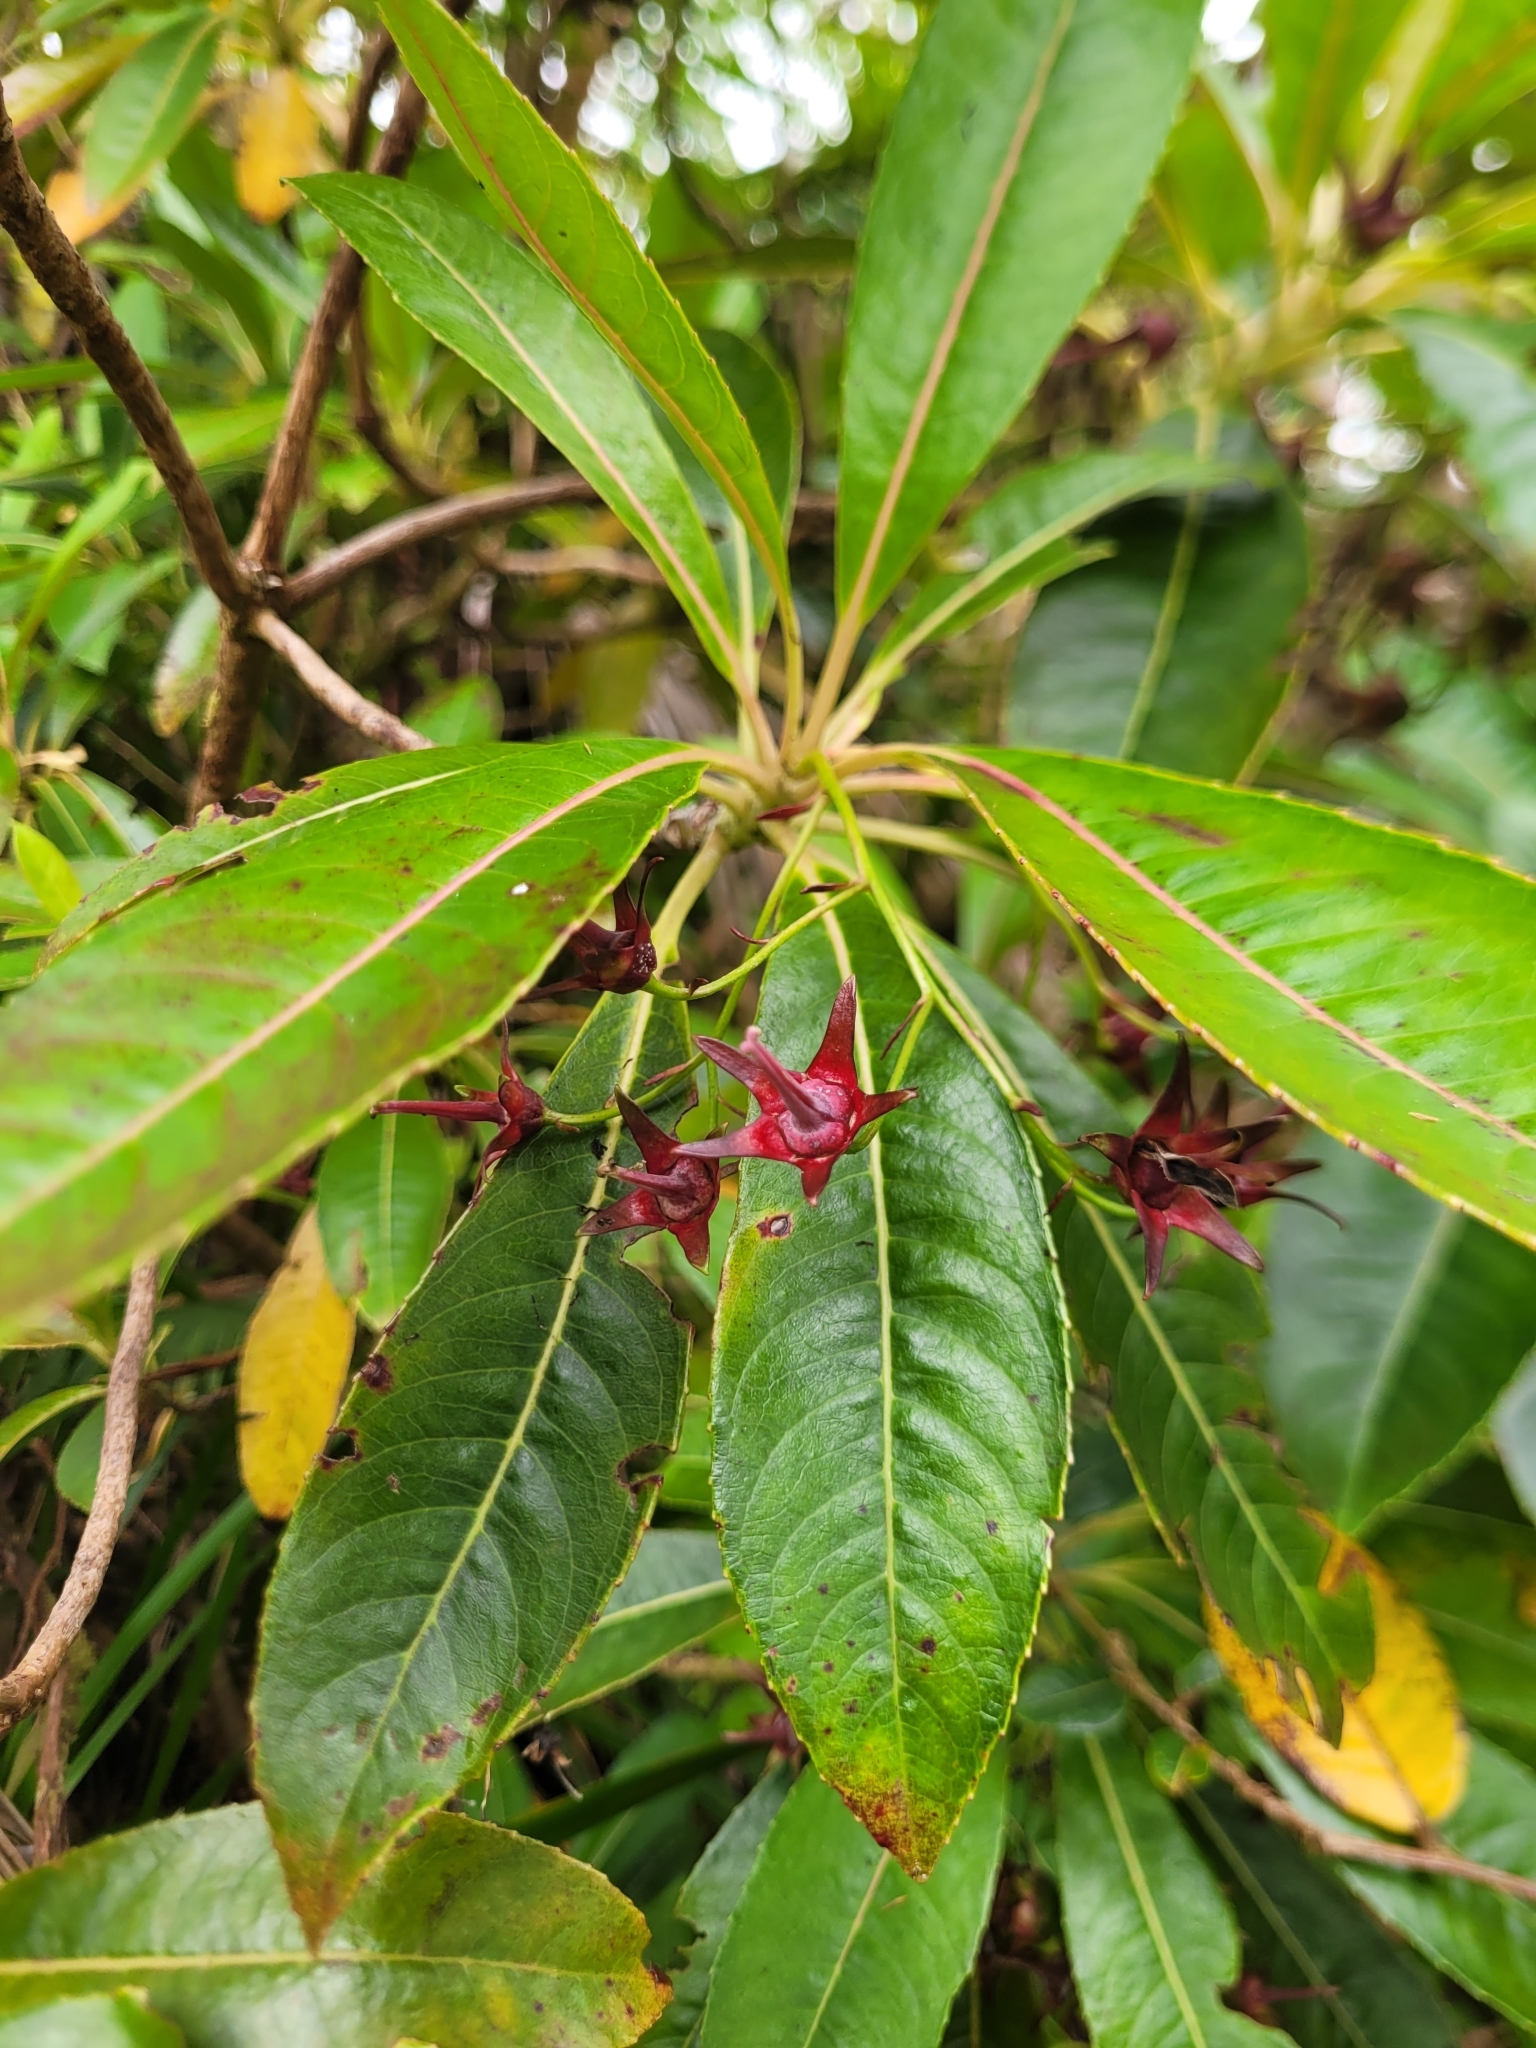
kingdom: Plantae
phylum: Tracheophyta
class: Magnoliopsida
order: Escalloniales
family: Escalloniaceae
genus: Forgesia
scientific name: Forgesia racemosa
